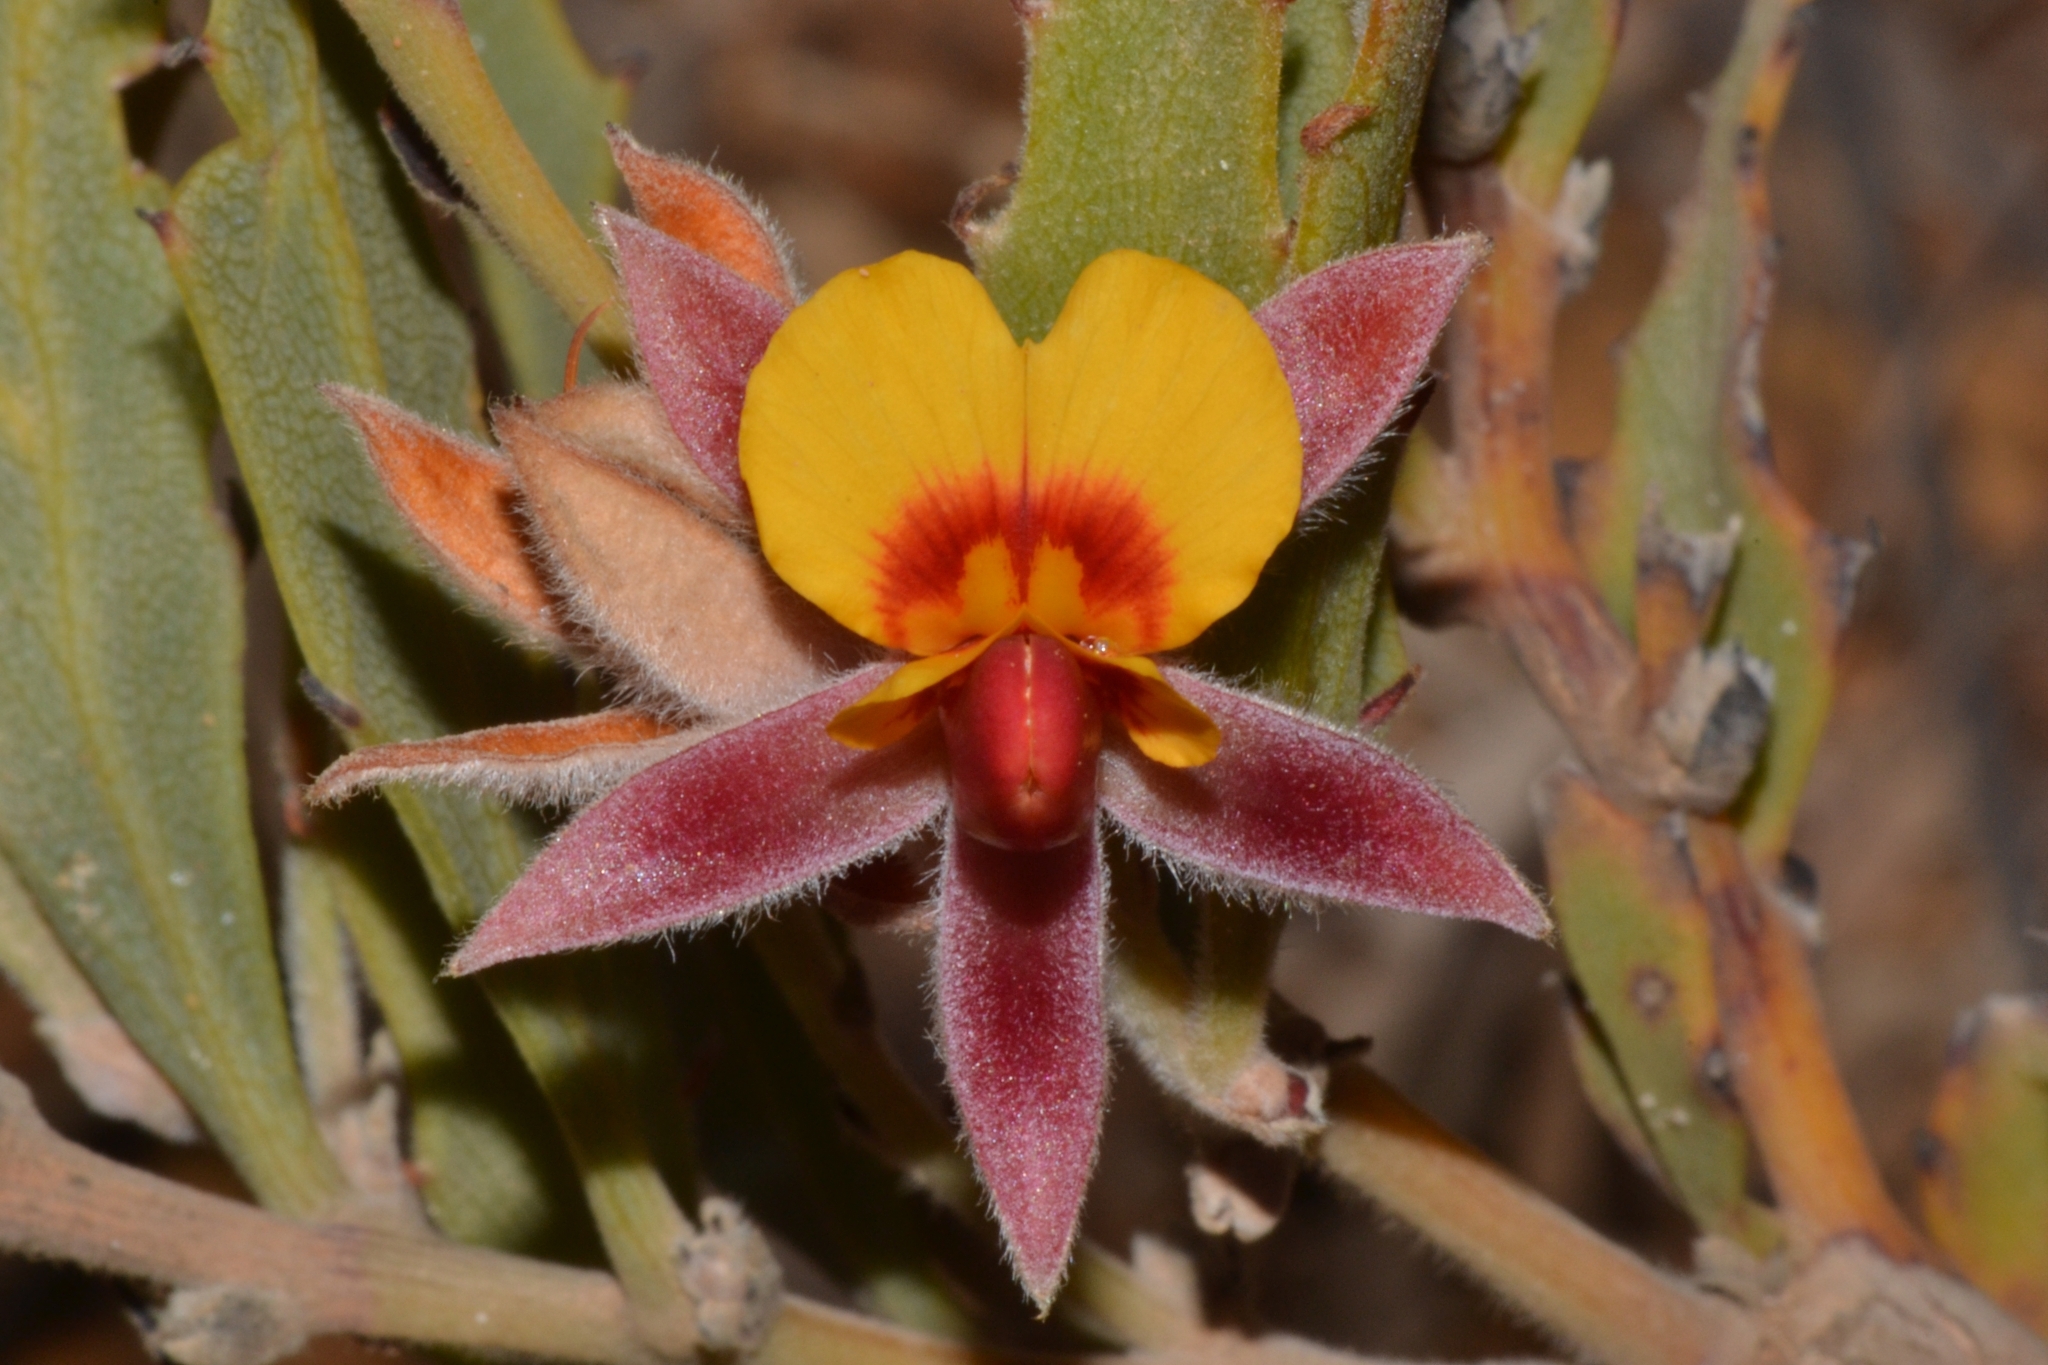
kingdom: Plantae
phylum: Tracheophyta
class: Magnoliopsida
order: Fabales
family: Fabaceae
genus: Jacksonia
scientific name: Jacksonia floribunda
